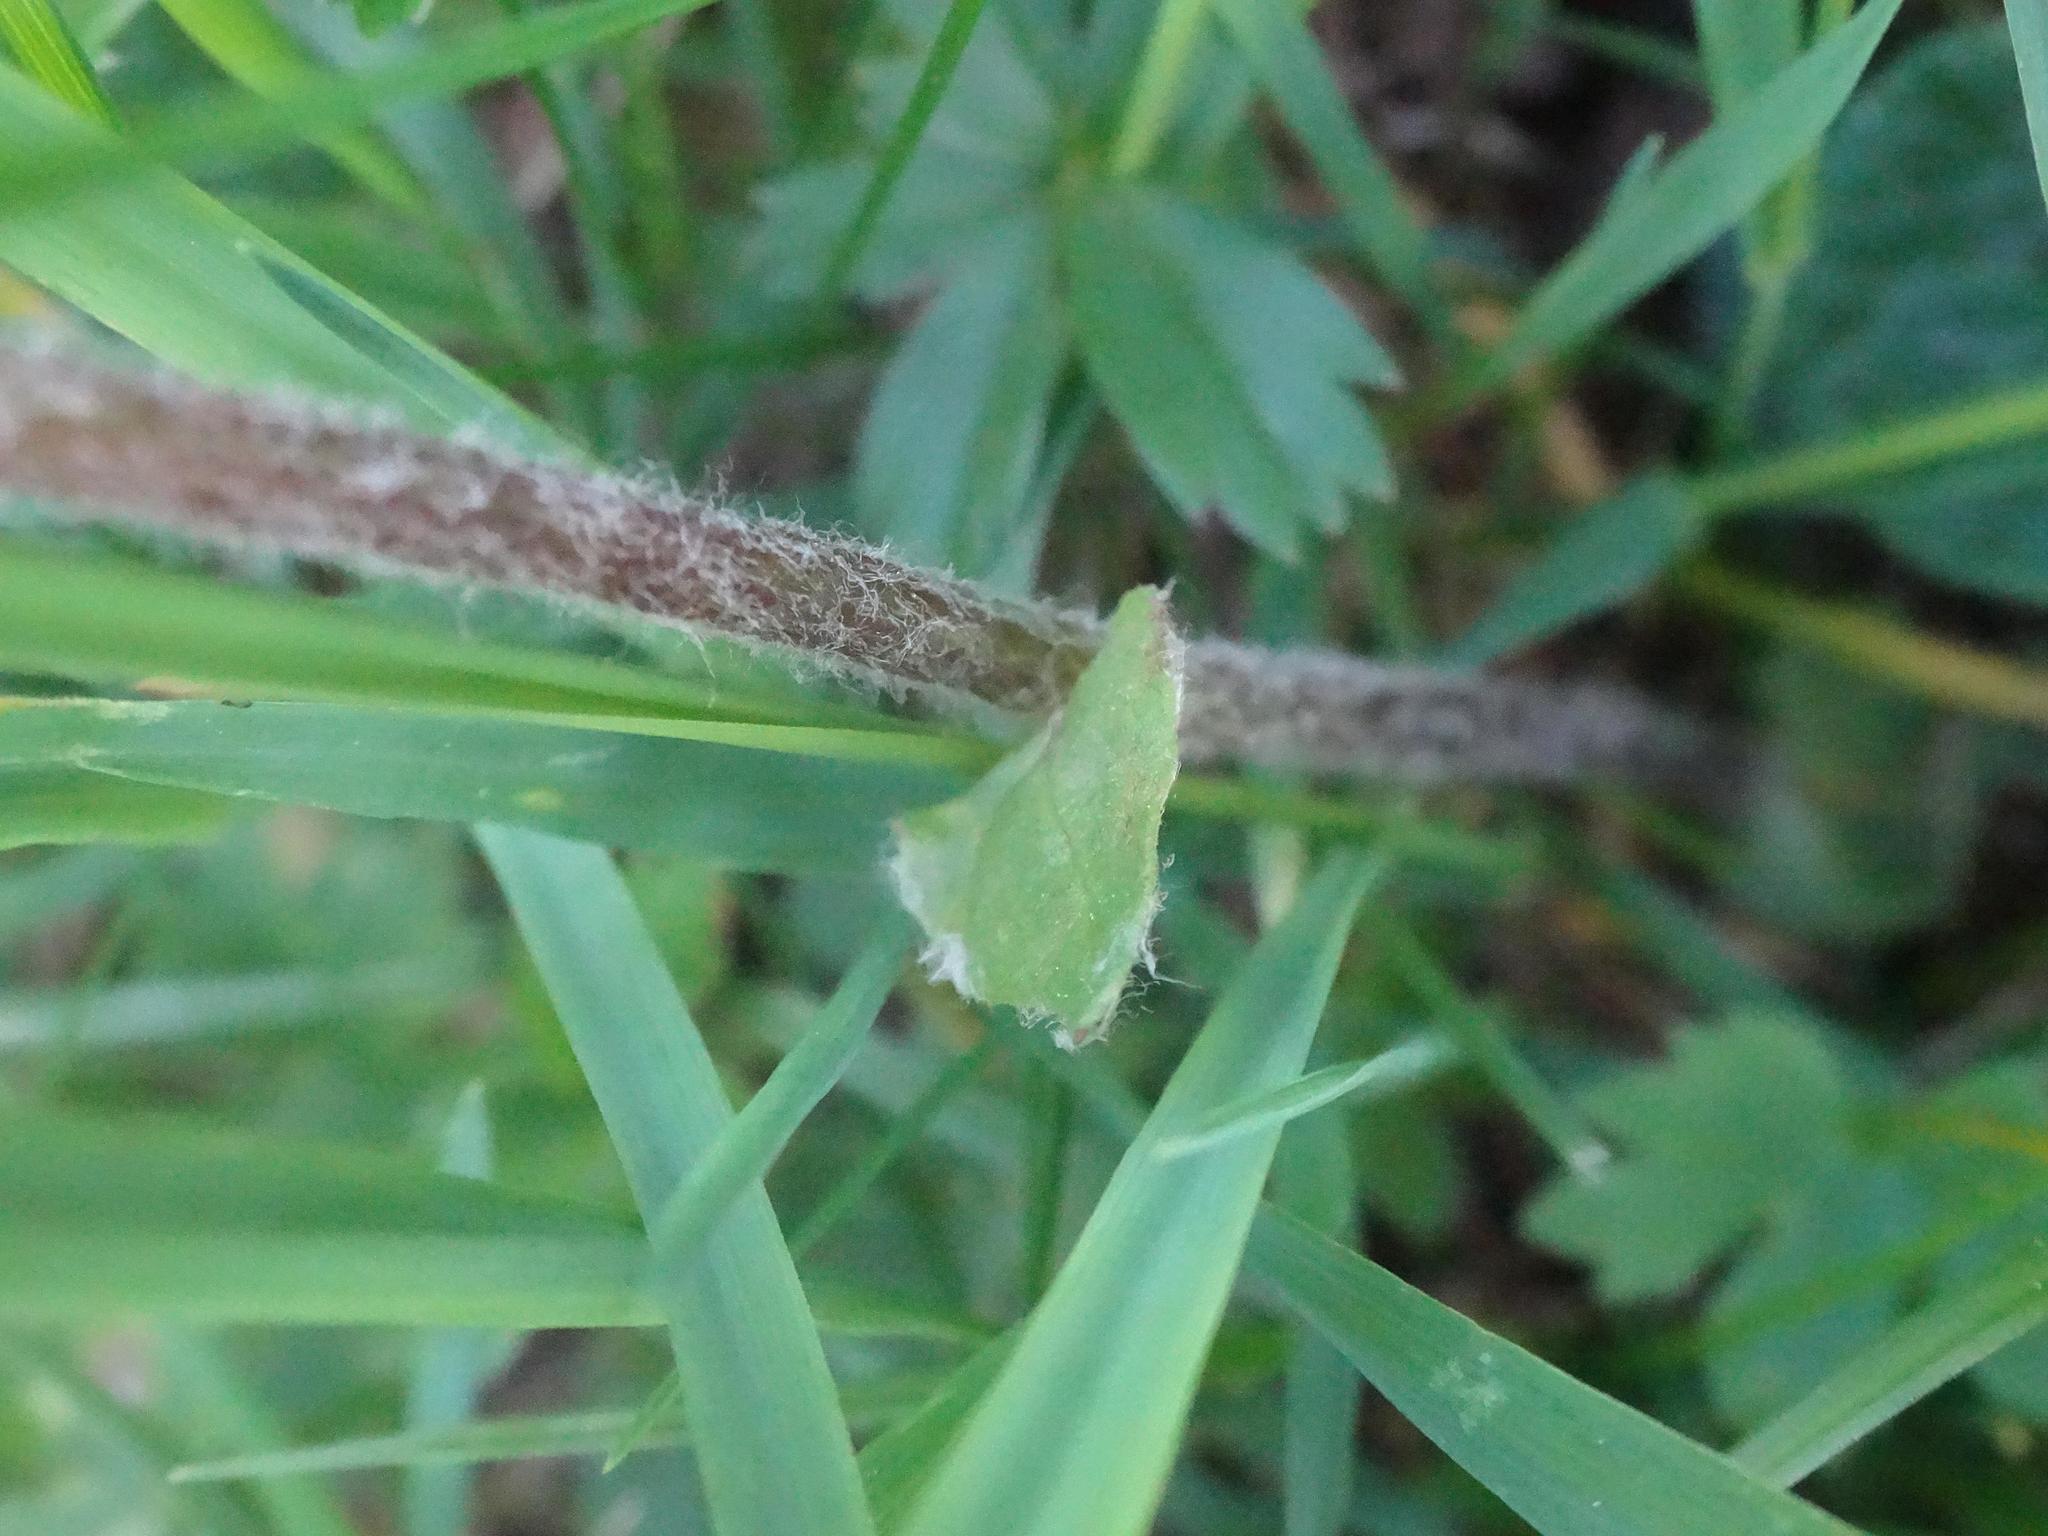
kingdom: Plantae
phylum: Tracheophyta
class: Magnoliopsida
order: Asterales
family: Asteraceae
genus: Homogyne
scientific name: Homogyne alpina
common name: Purple colt's-foot
